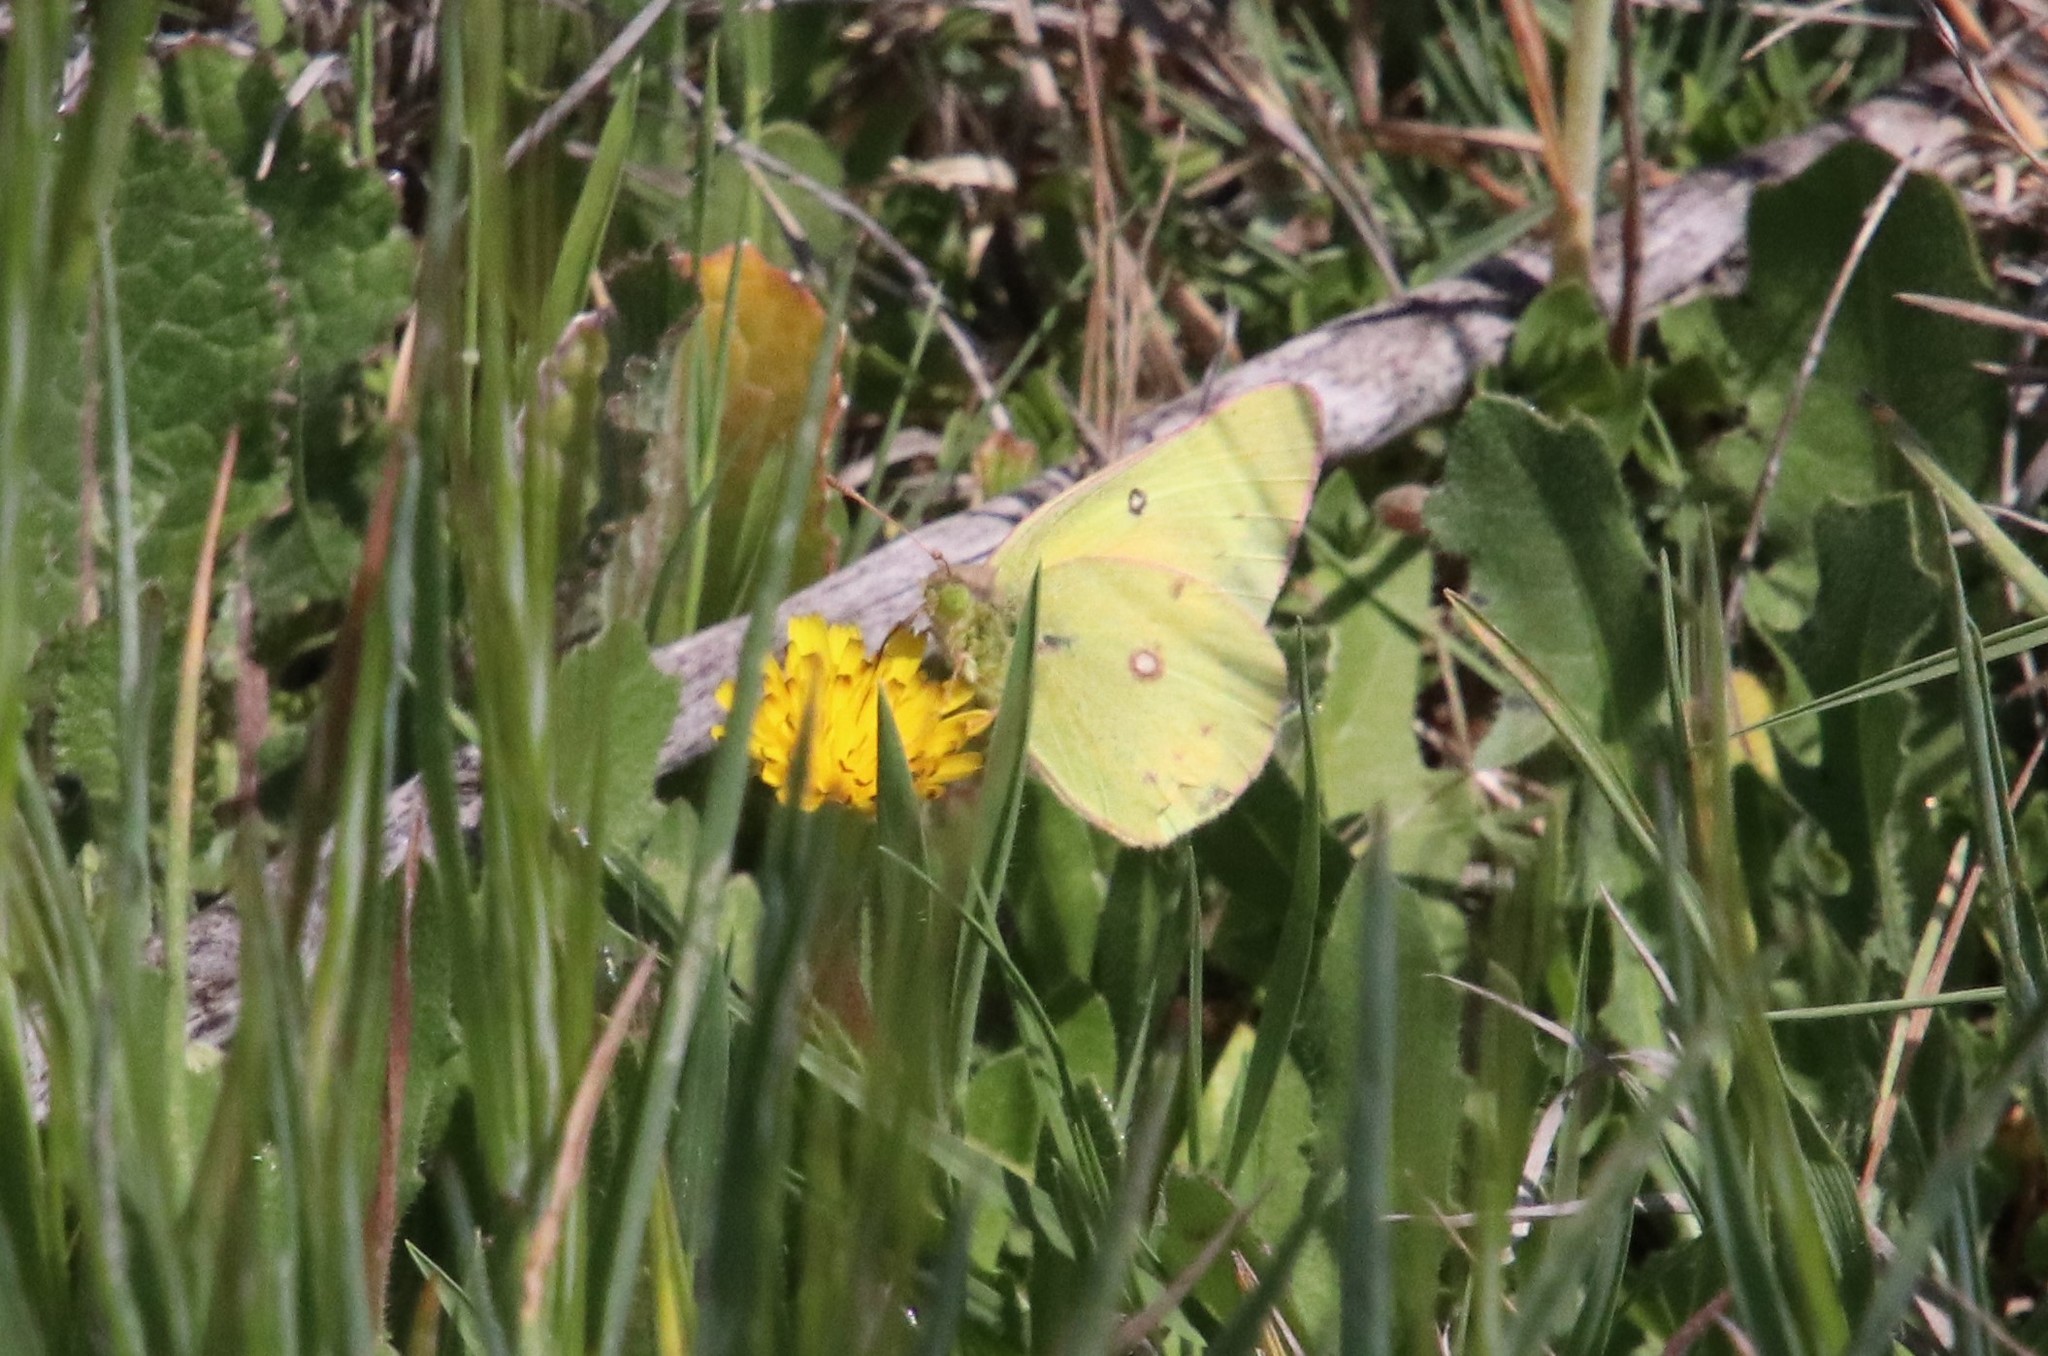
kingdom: Animalia
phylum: Arthropoda
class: Insecta
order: Lepidoptera
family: Pieridae
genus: Colias
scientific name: Colias eurytheme
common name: Alfalfa butterfly
